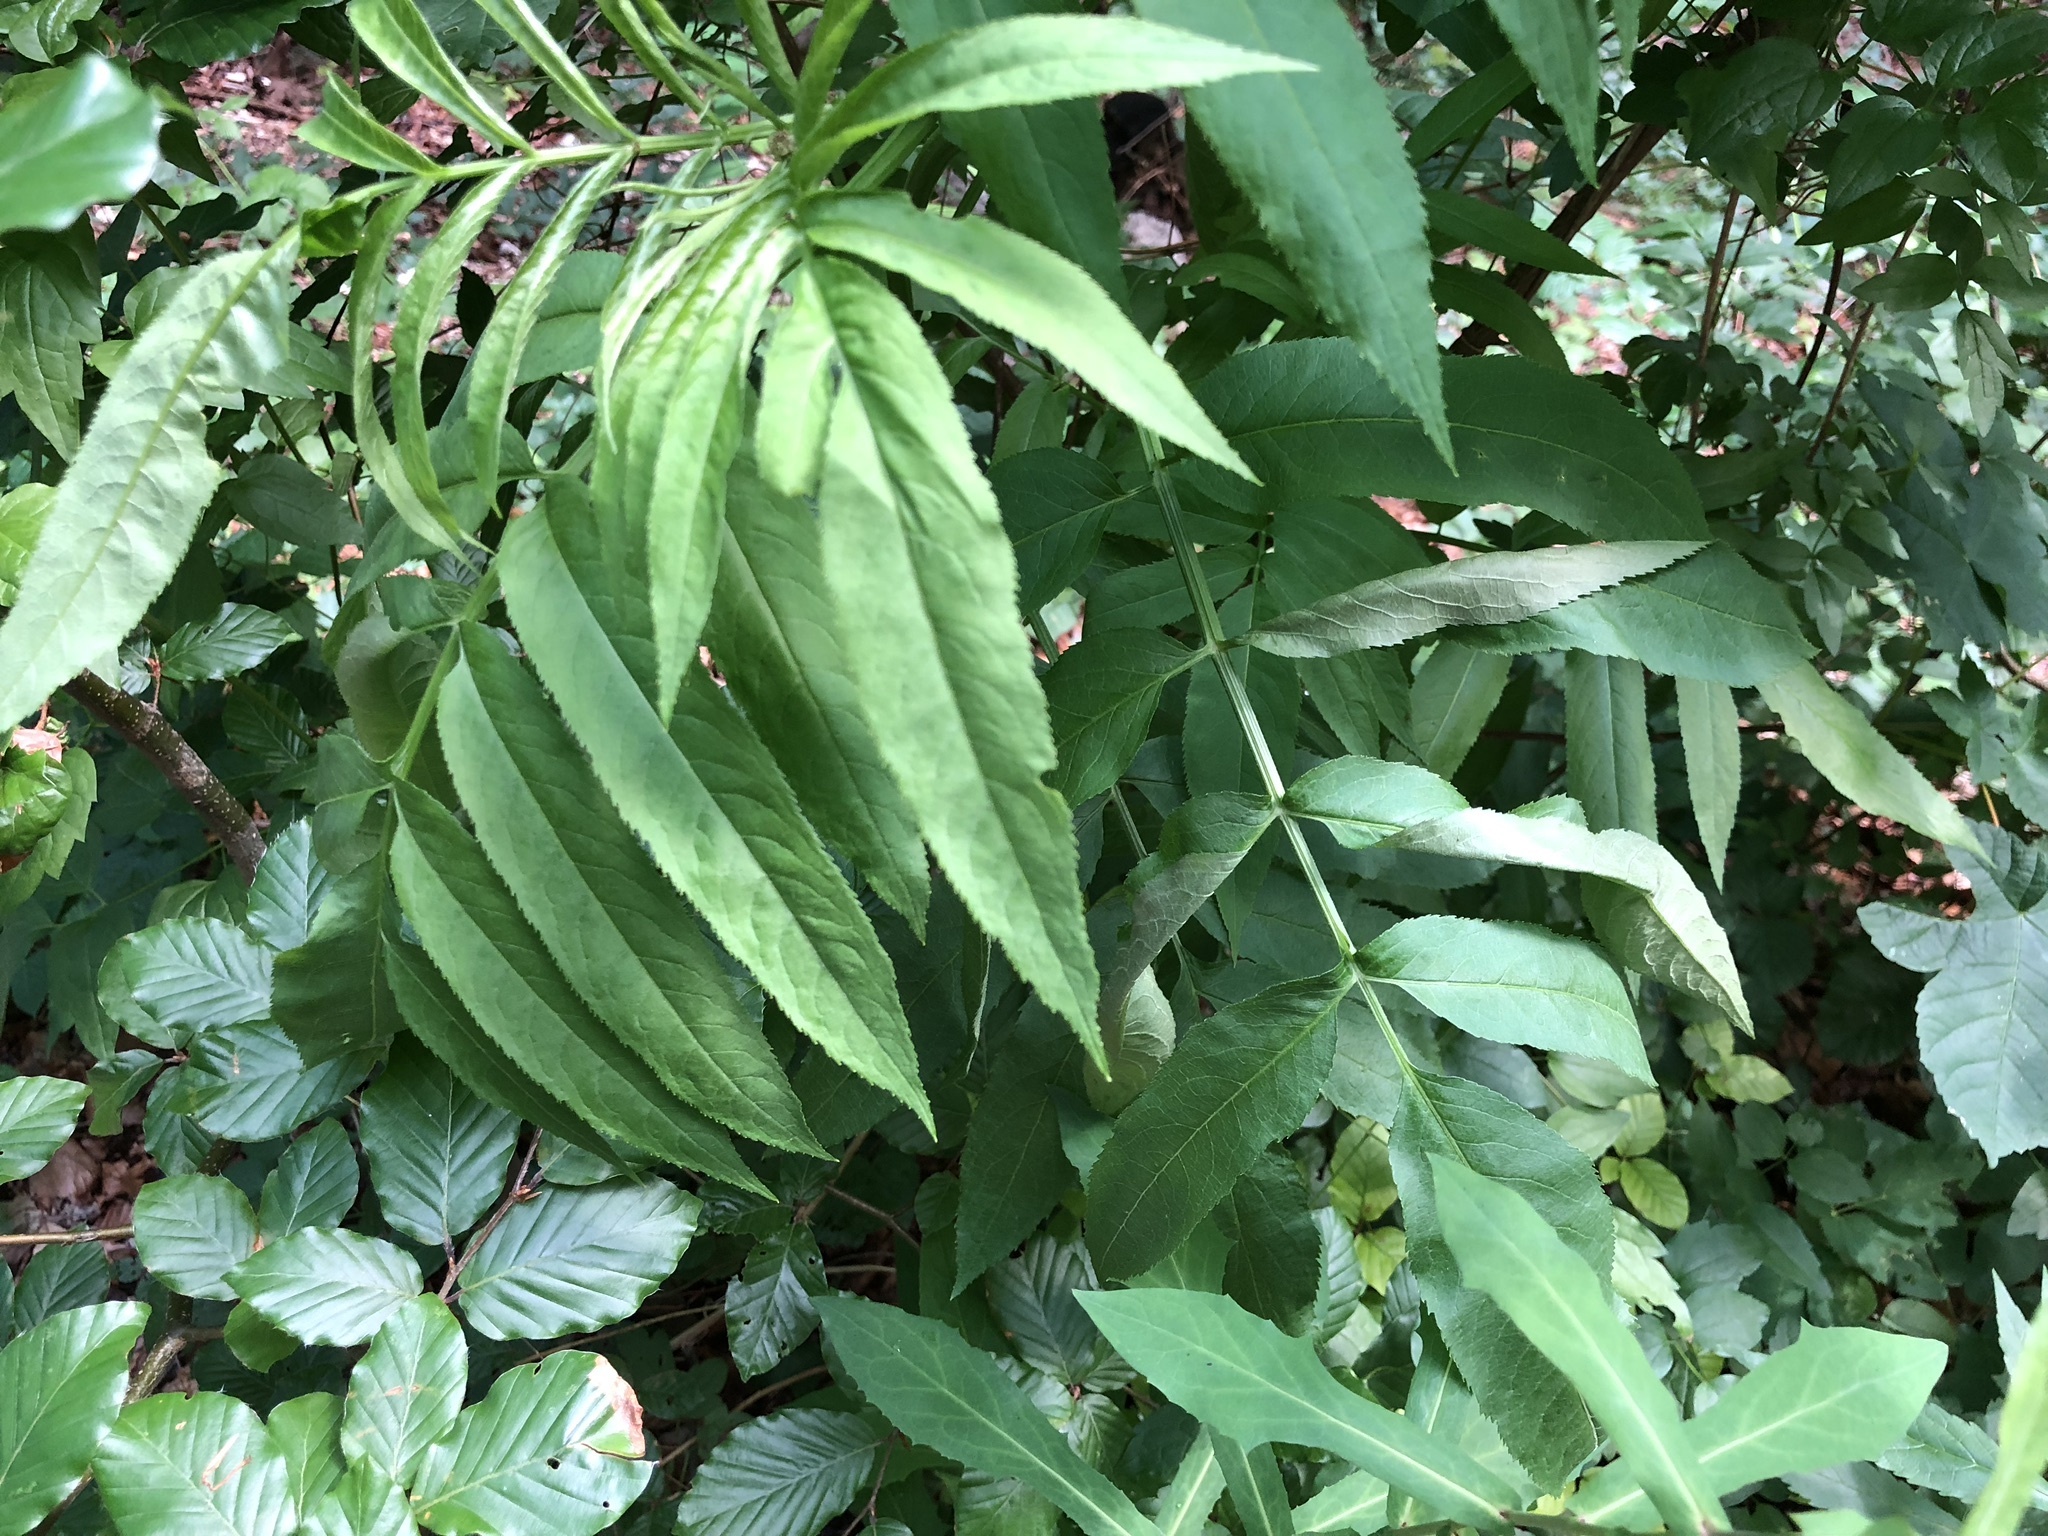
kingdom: Plantae
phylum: Tracheophyta
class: Magnoliopsida
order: Dipsacales
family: Viburnaceae
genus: Sambucus
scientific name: Sambucus ebulus
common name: Dwarf elder
